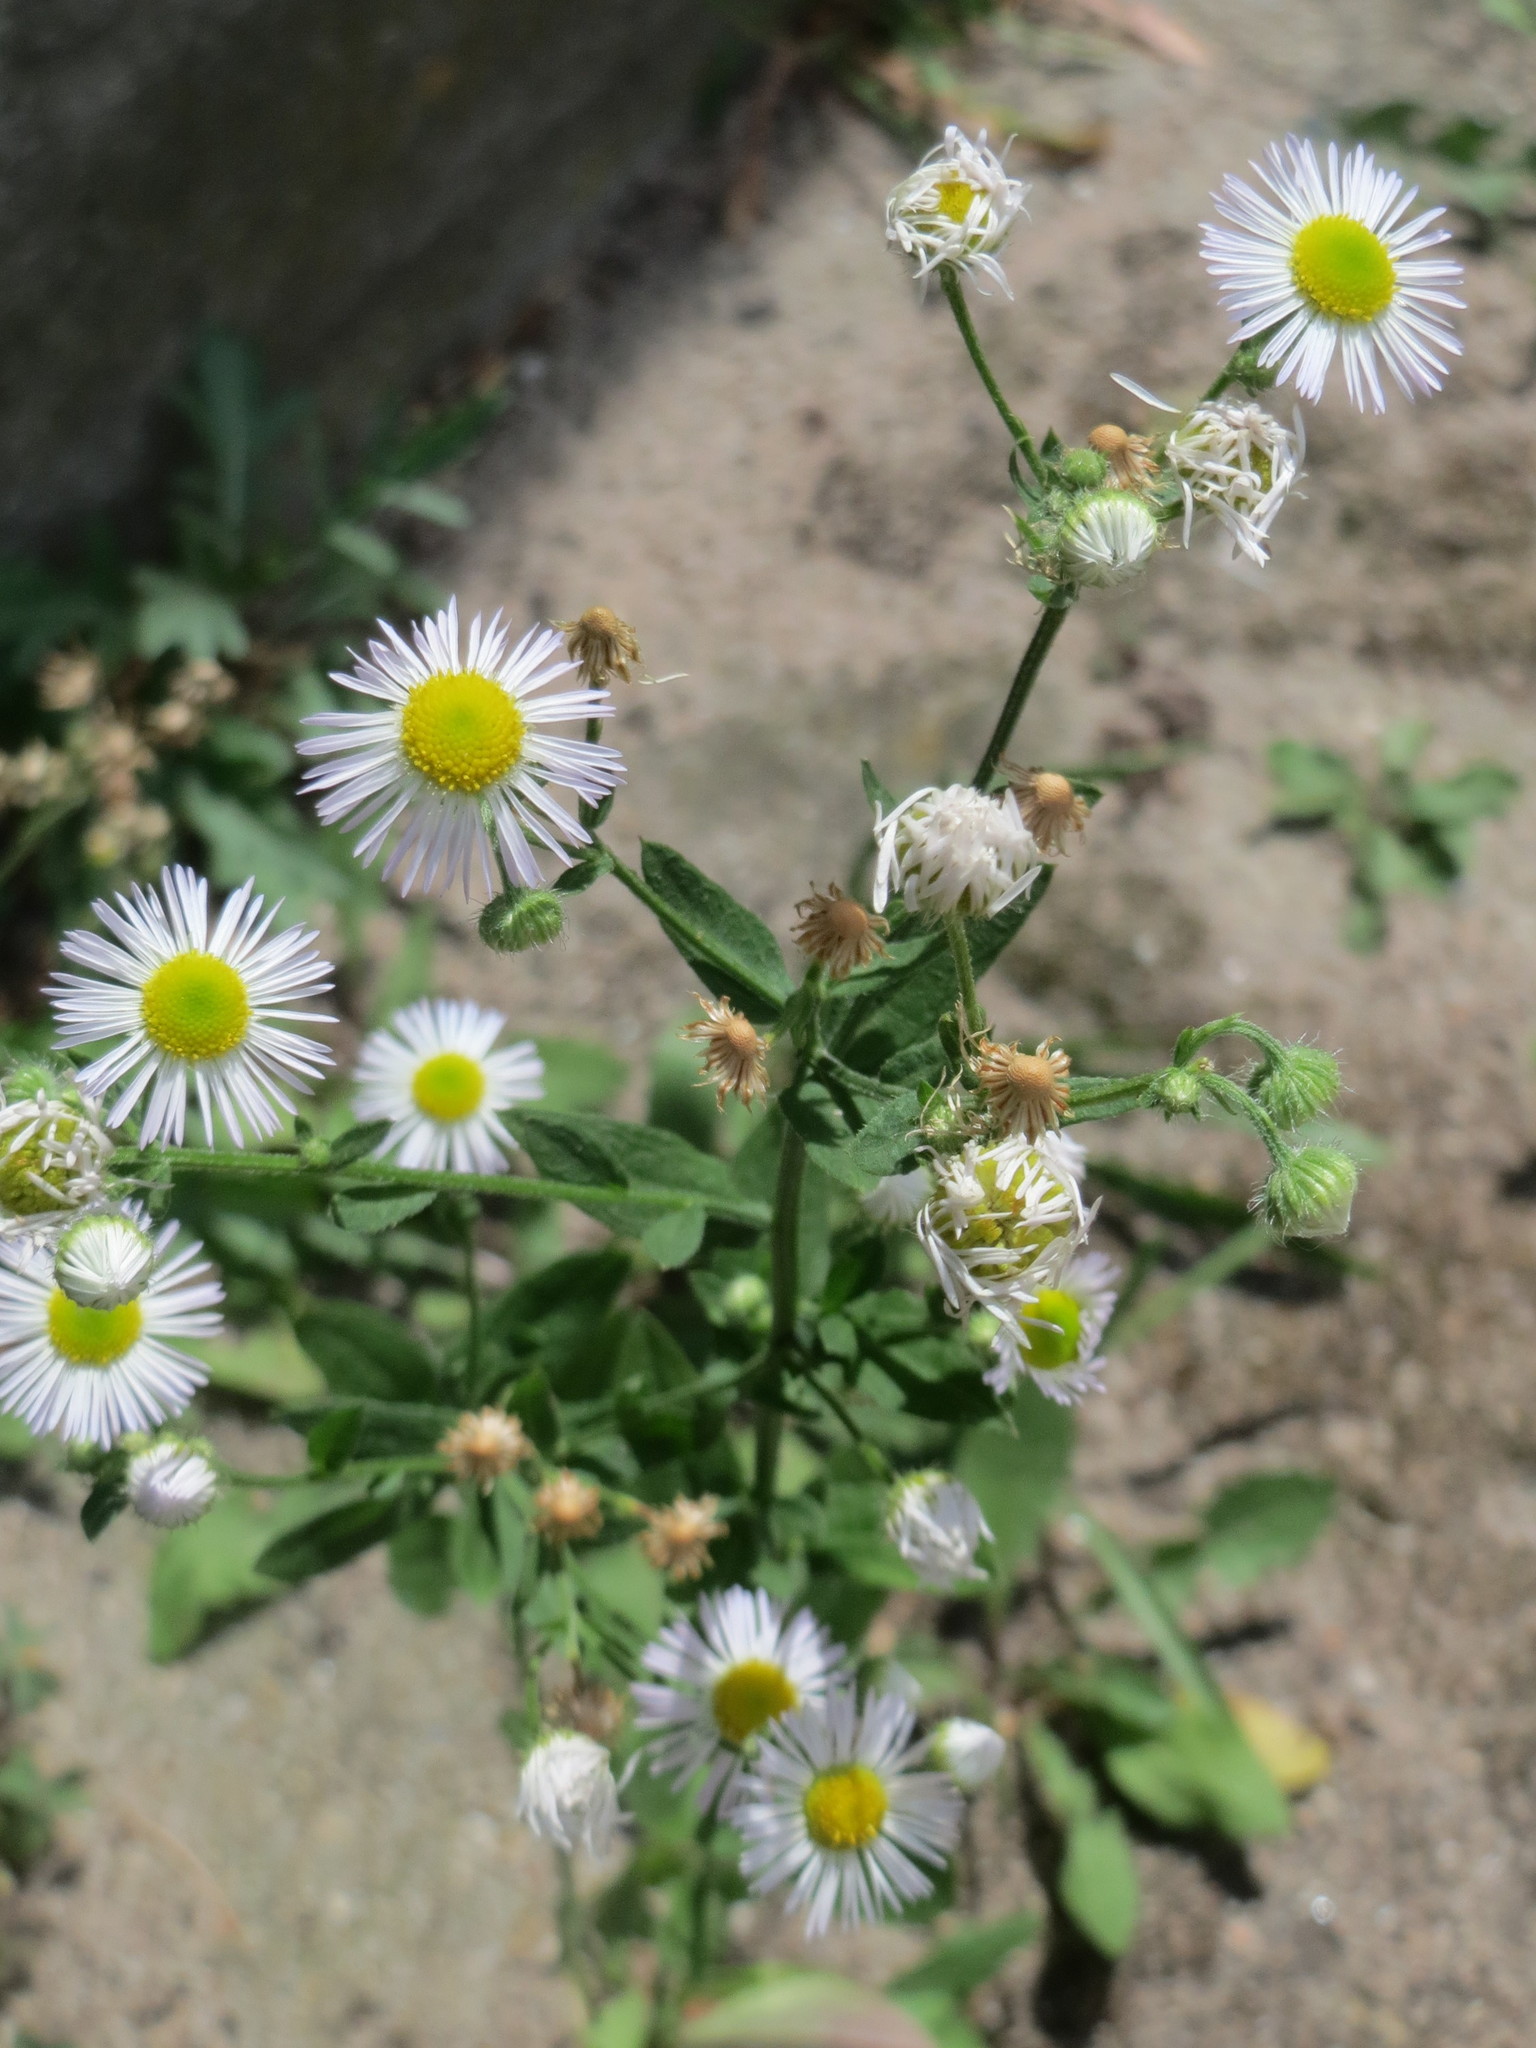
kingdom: Plantae
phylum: Tracheophyta
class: Magnoliopsida
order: Asterales
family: Asteraceae
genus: Erigeron
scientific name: Erigeron annuus
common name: Tall fleabane
